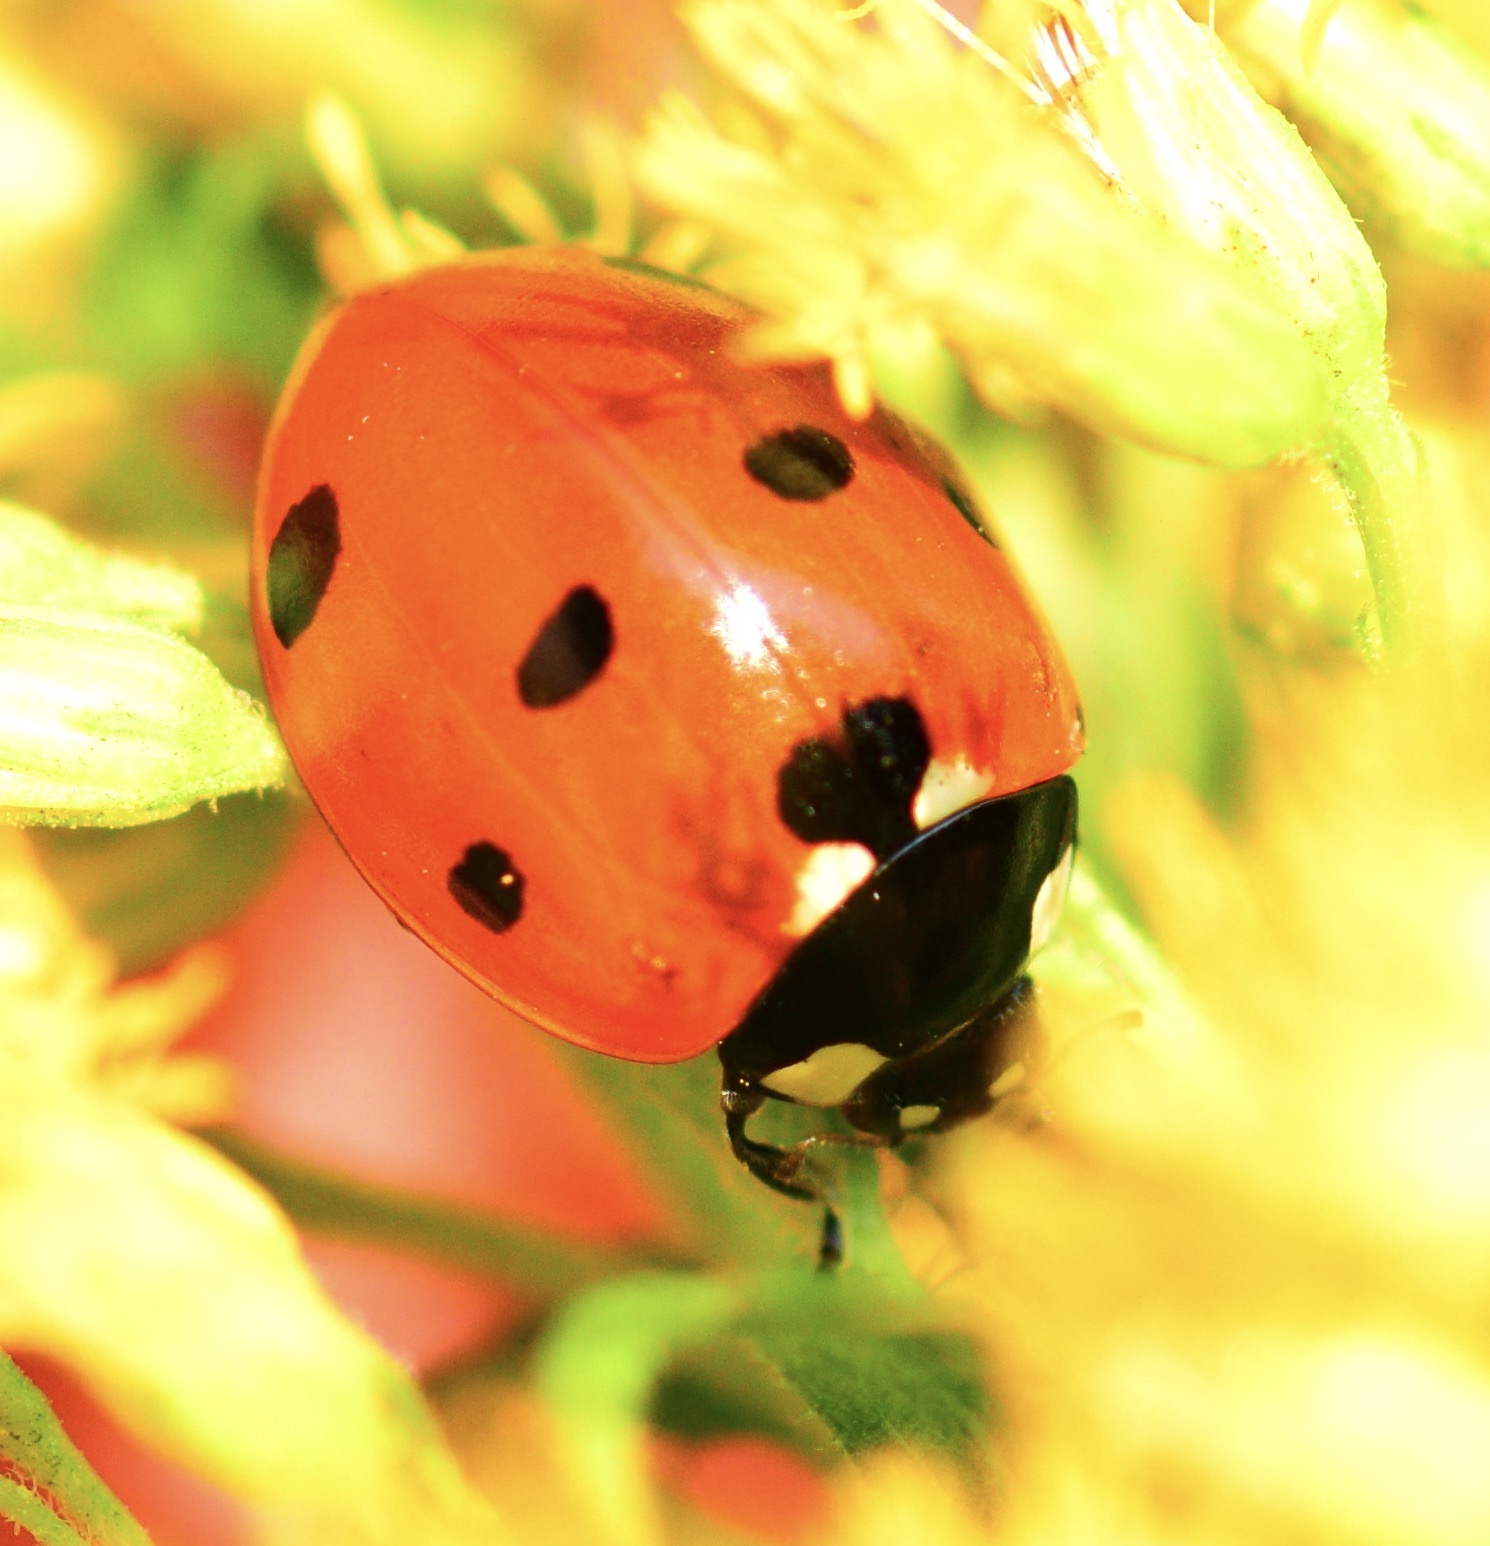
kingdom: Animalia
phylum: Arthropoda
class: Insecta
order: Coleoptera
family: Coccinellidae
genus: Coccinella
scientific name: Coccinella septempunctata
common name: Sevenspotted lady beetle
